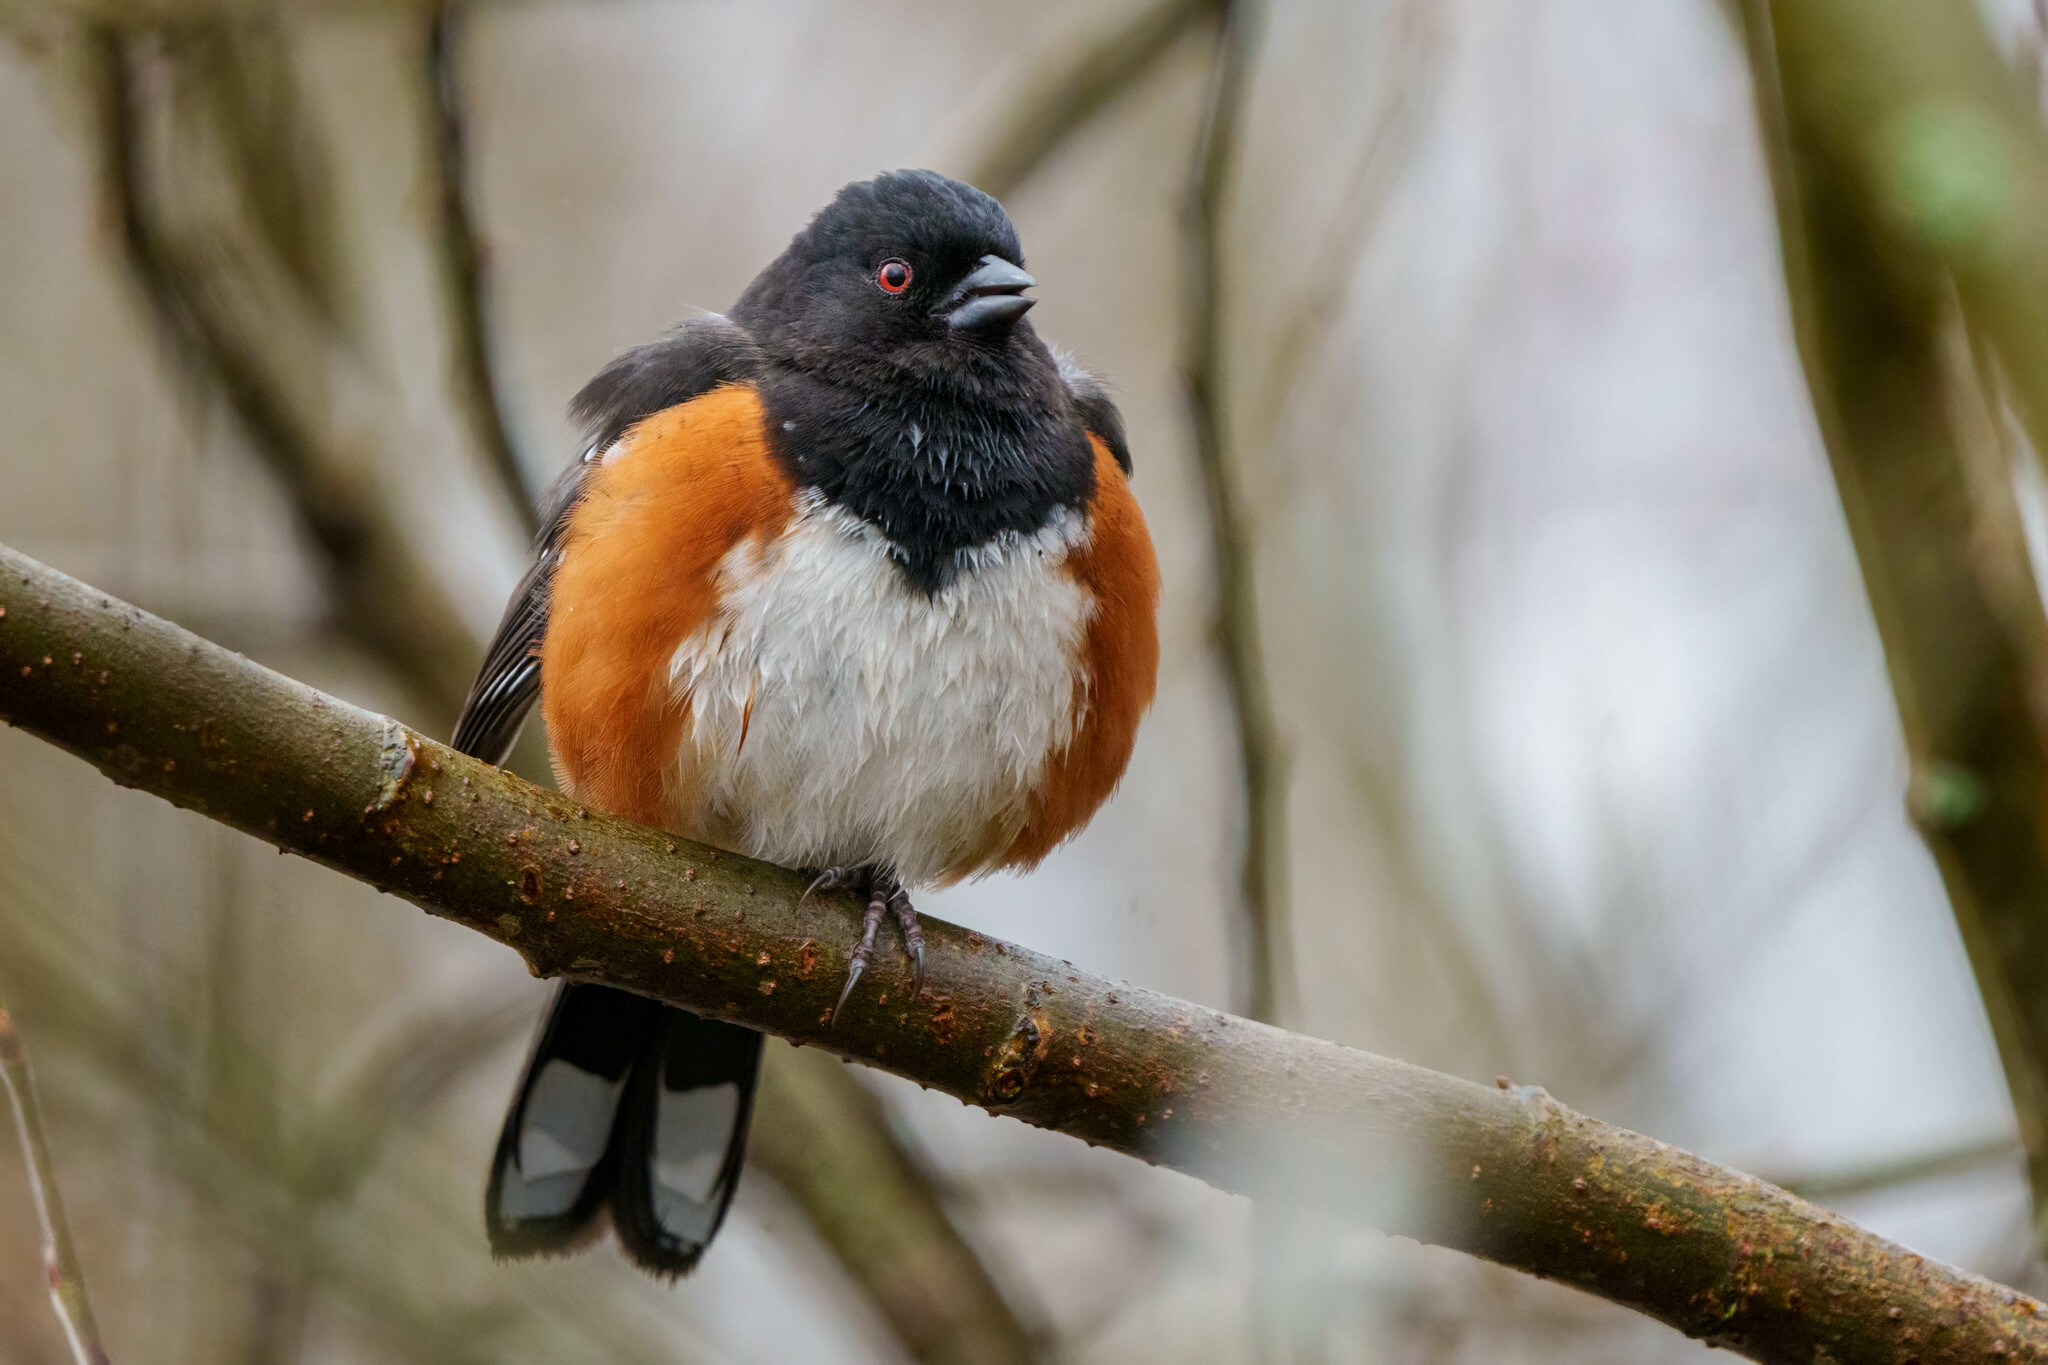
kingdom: Animalia
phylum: Chordata
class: Aves
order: Passeriformes
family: Passerellidae
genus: Pipilo
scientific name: Pipilo maculatus
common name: Spotted towhee
